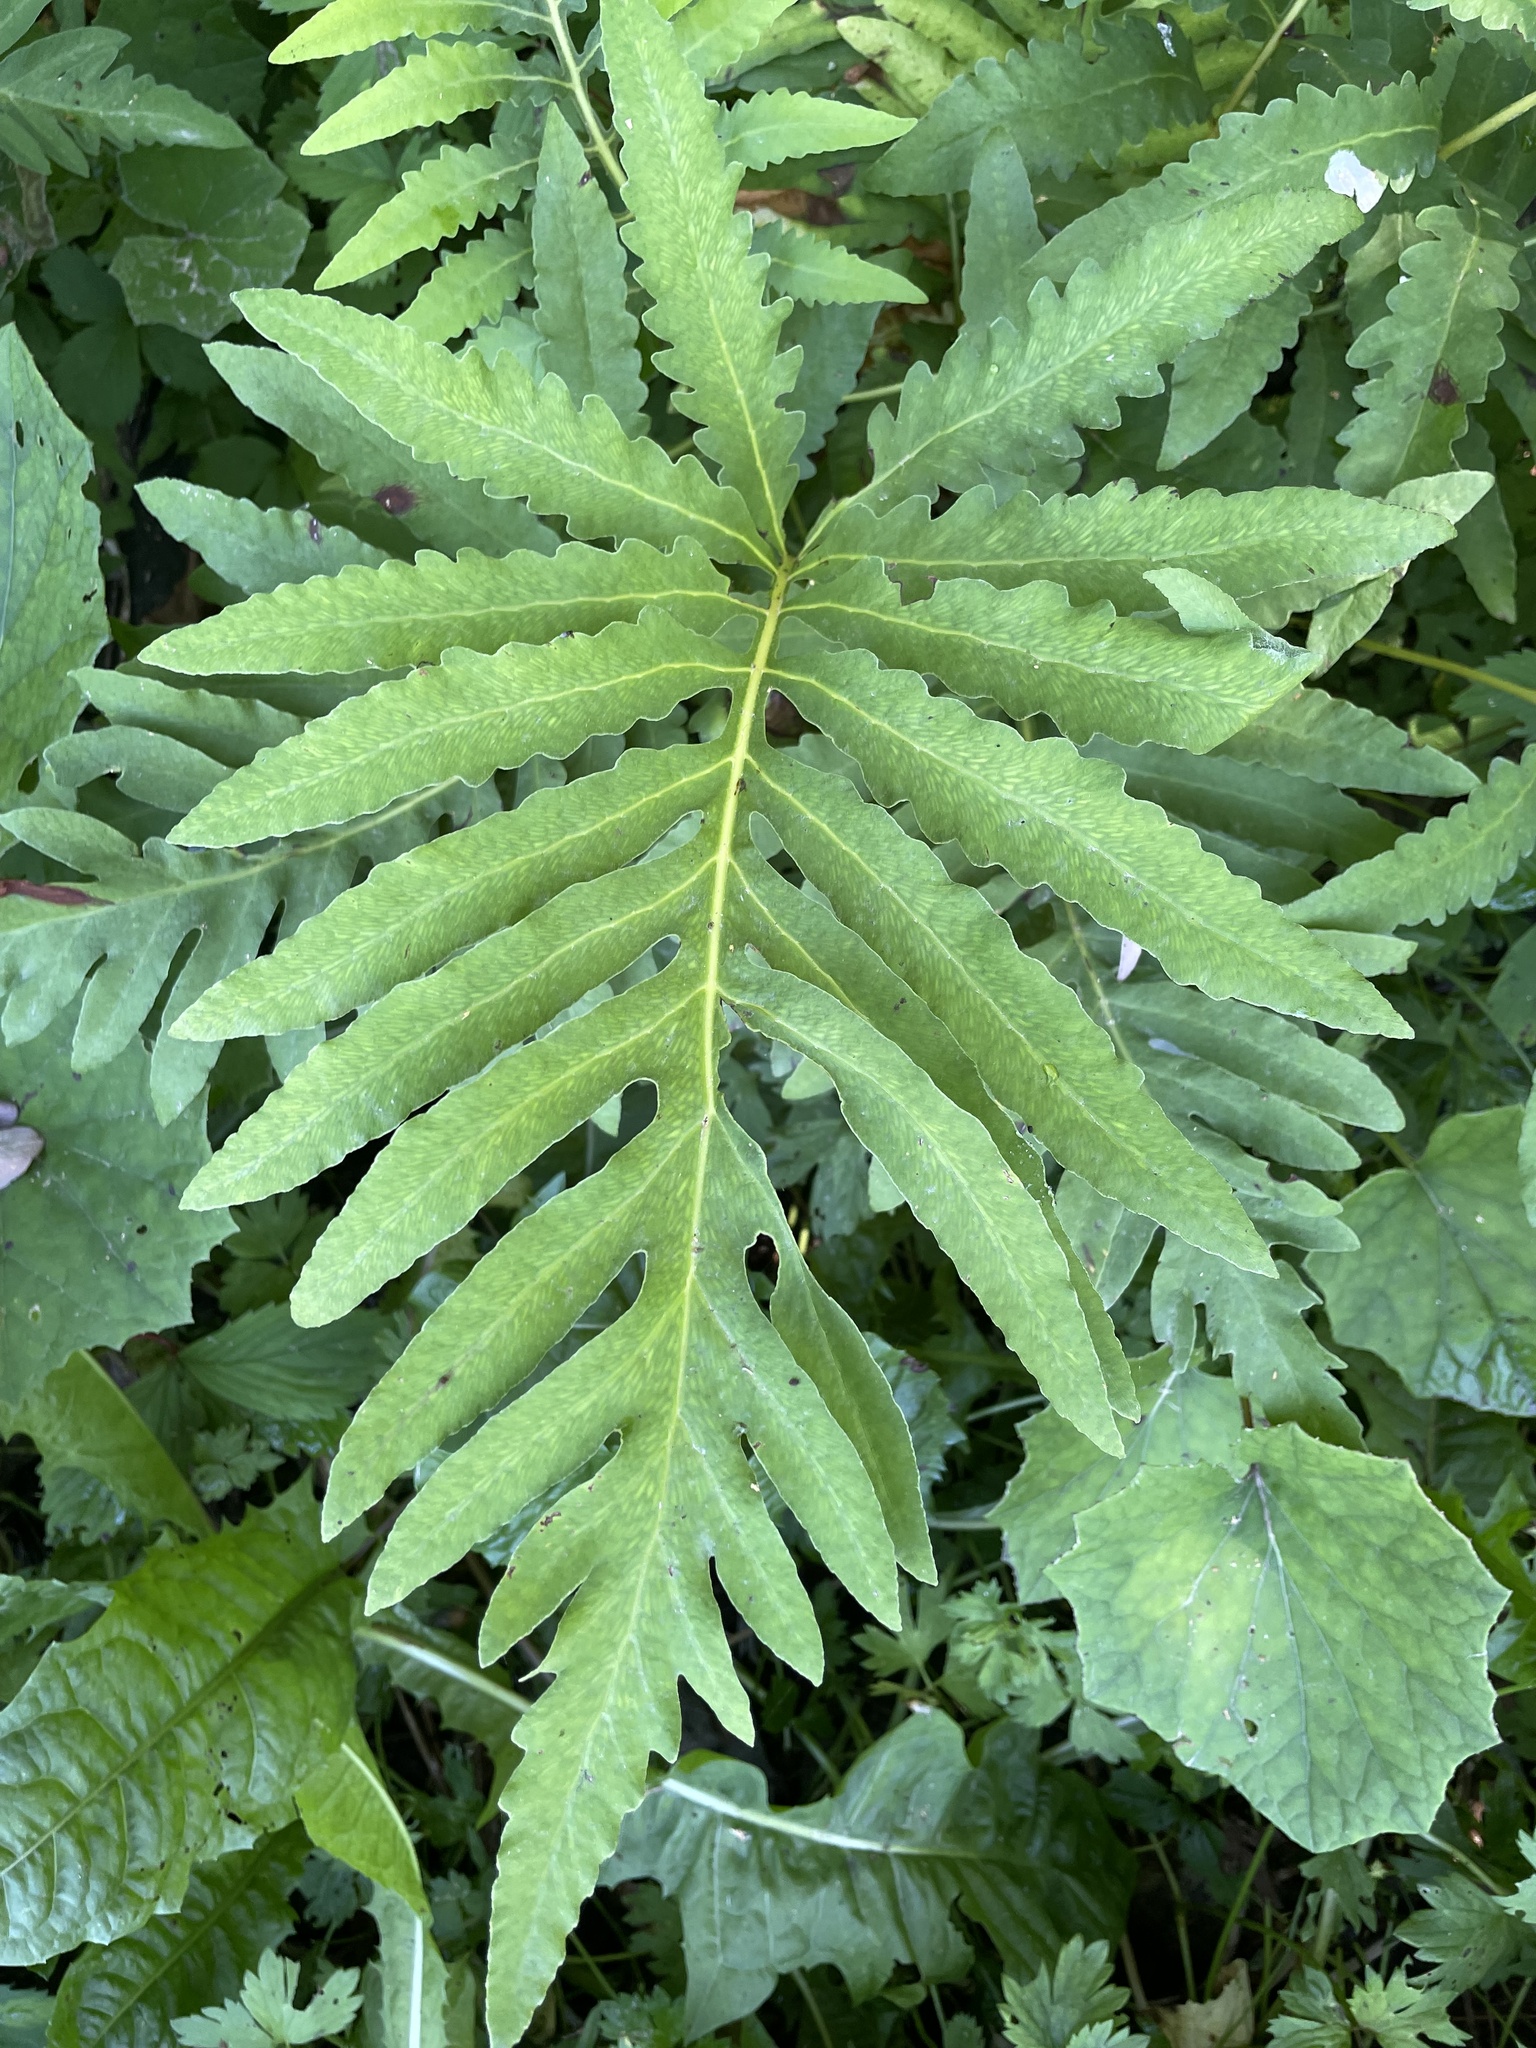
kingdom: Plantae
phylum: Tracheophyta
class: Polypodiopsida
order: Polypodiales
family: Onocleaceae
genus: Onoclea
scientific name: Onoclea sensibilis
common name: Sensitive fern
